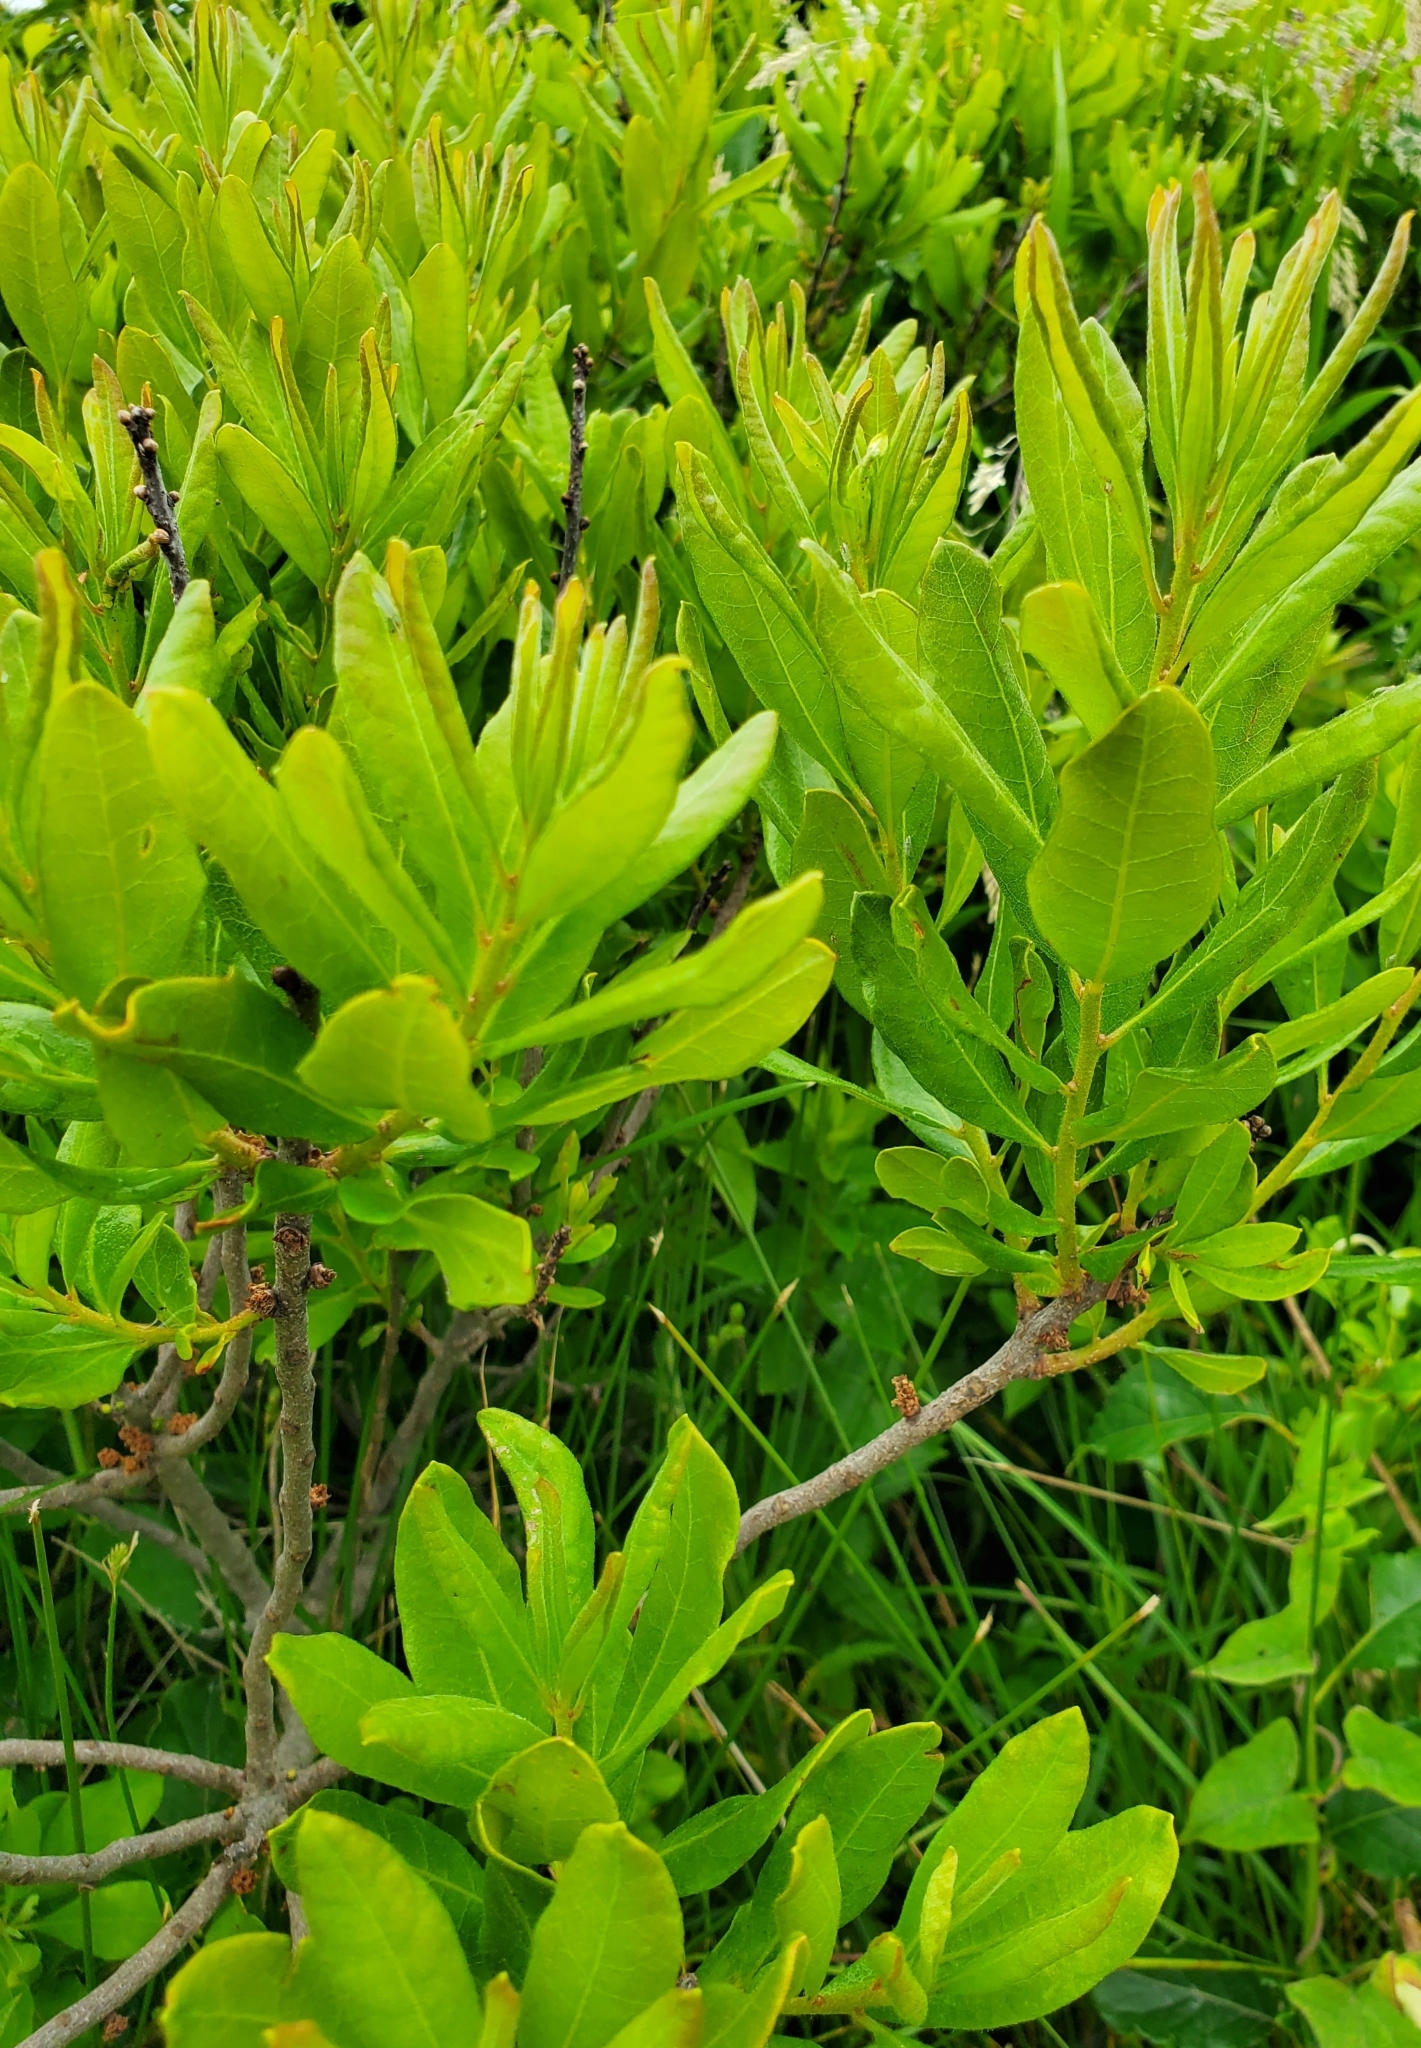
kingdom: Plantae
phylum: Tracheophyta
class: Magnoliopsida
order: Fagales
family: Myricaceae
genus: Morella
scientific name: Morella pensylvanica
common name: Northern bayberry
